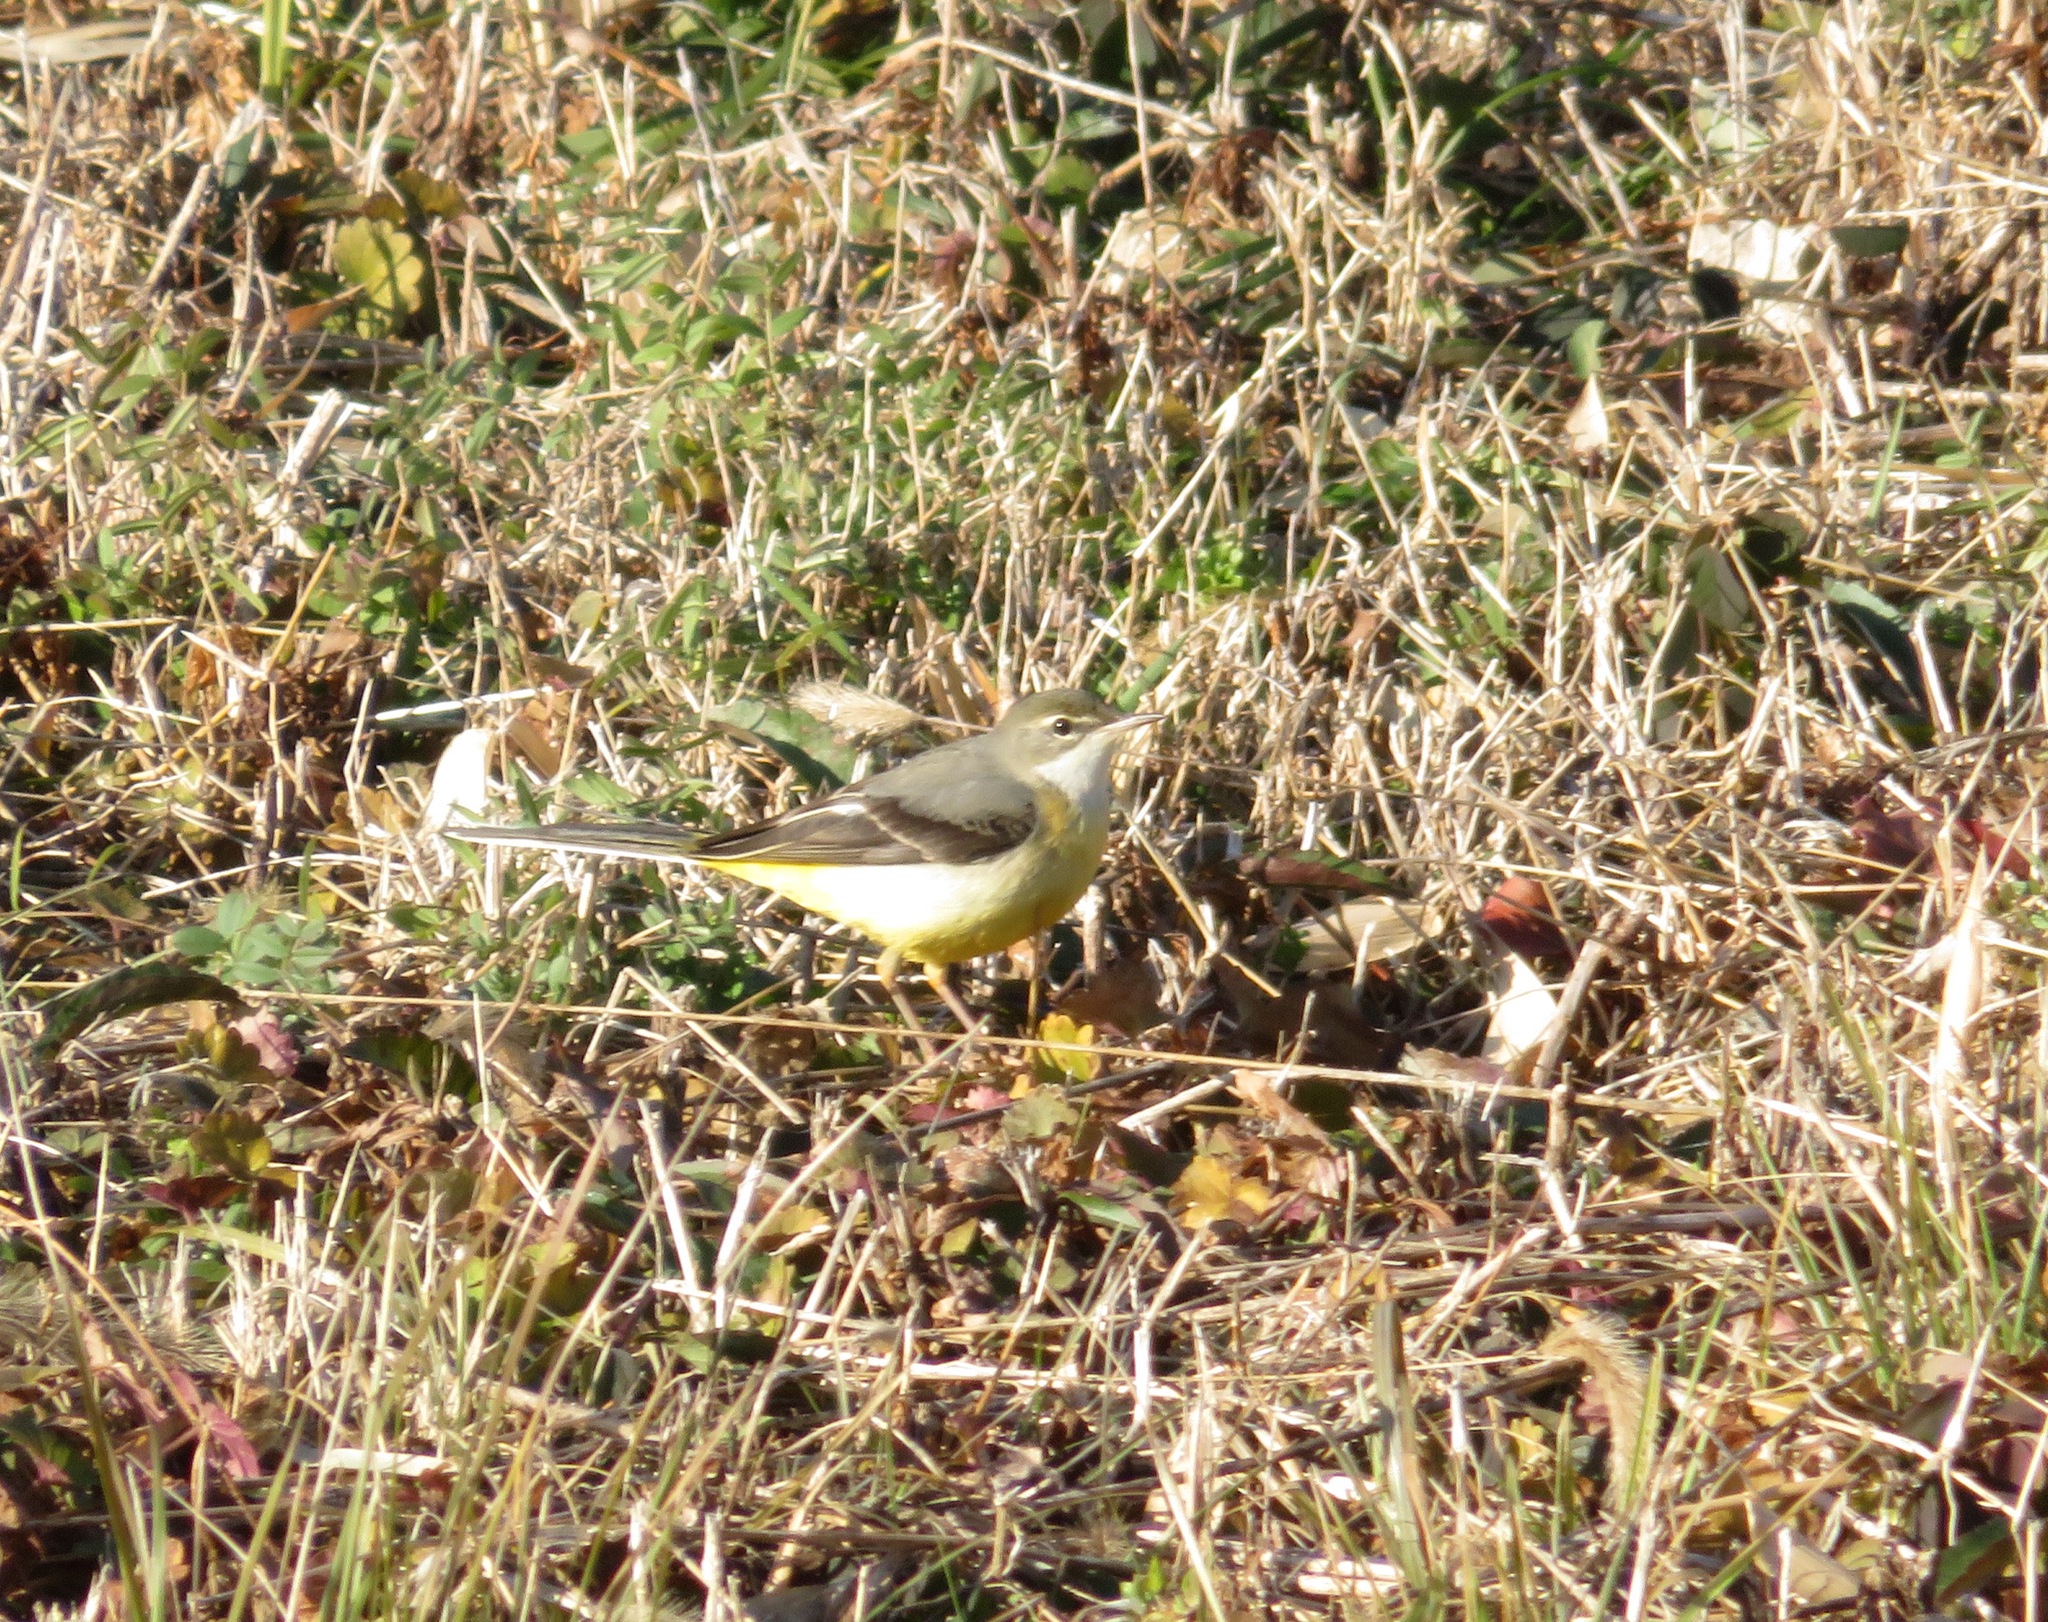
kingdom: Animalia
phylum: Chordata
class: Aves
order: Passeriformes
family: Motacillidae
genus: Motacilla
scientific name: Motacilla cinerea
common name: Grey wagtail
